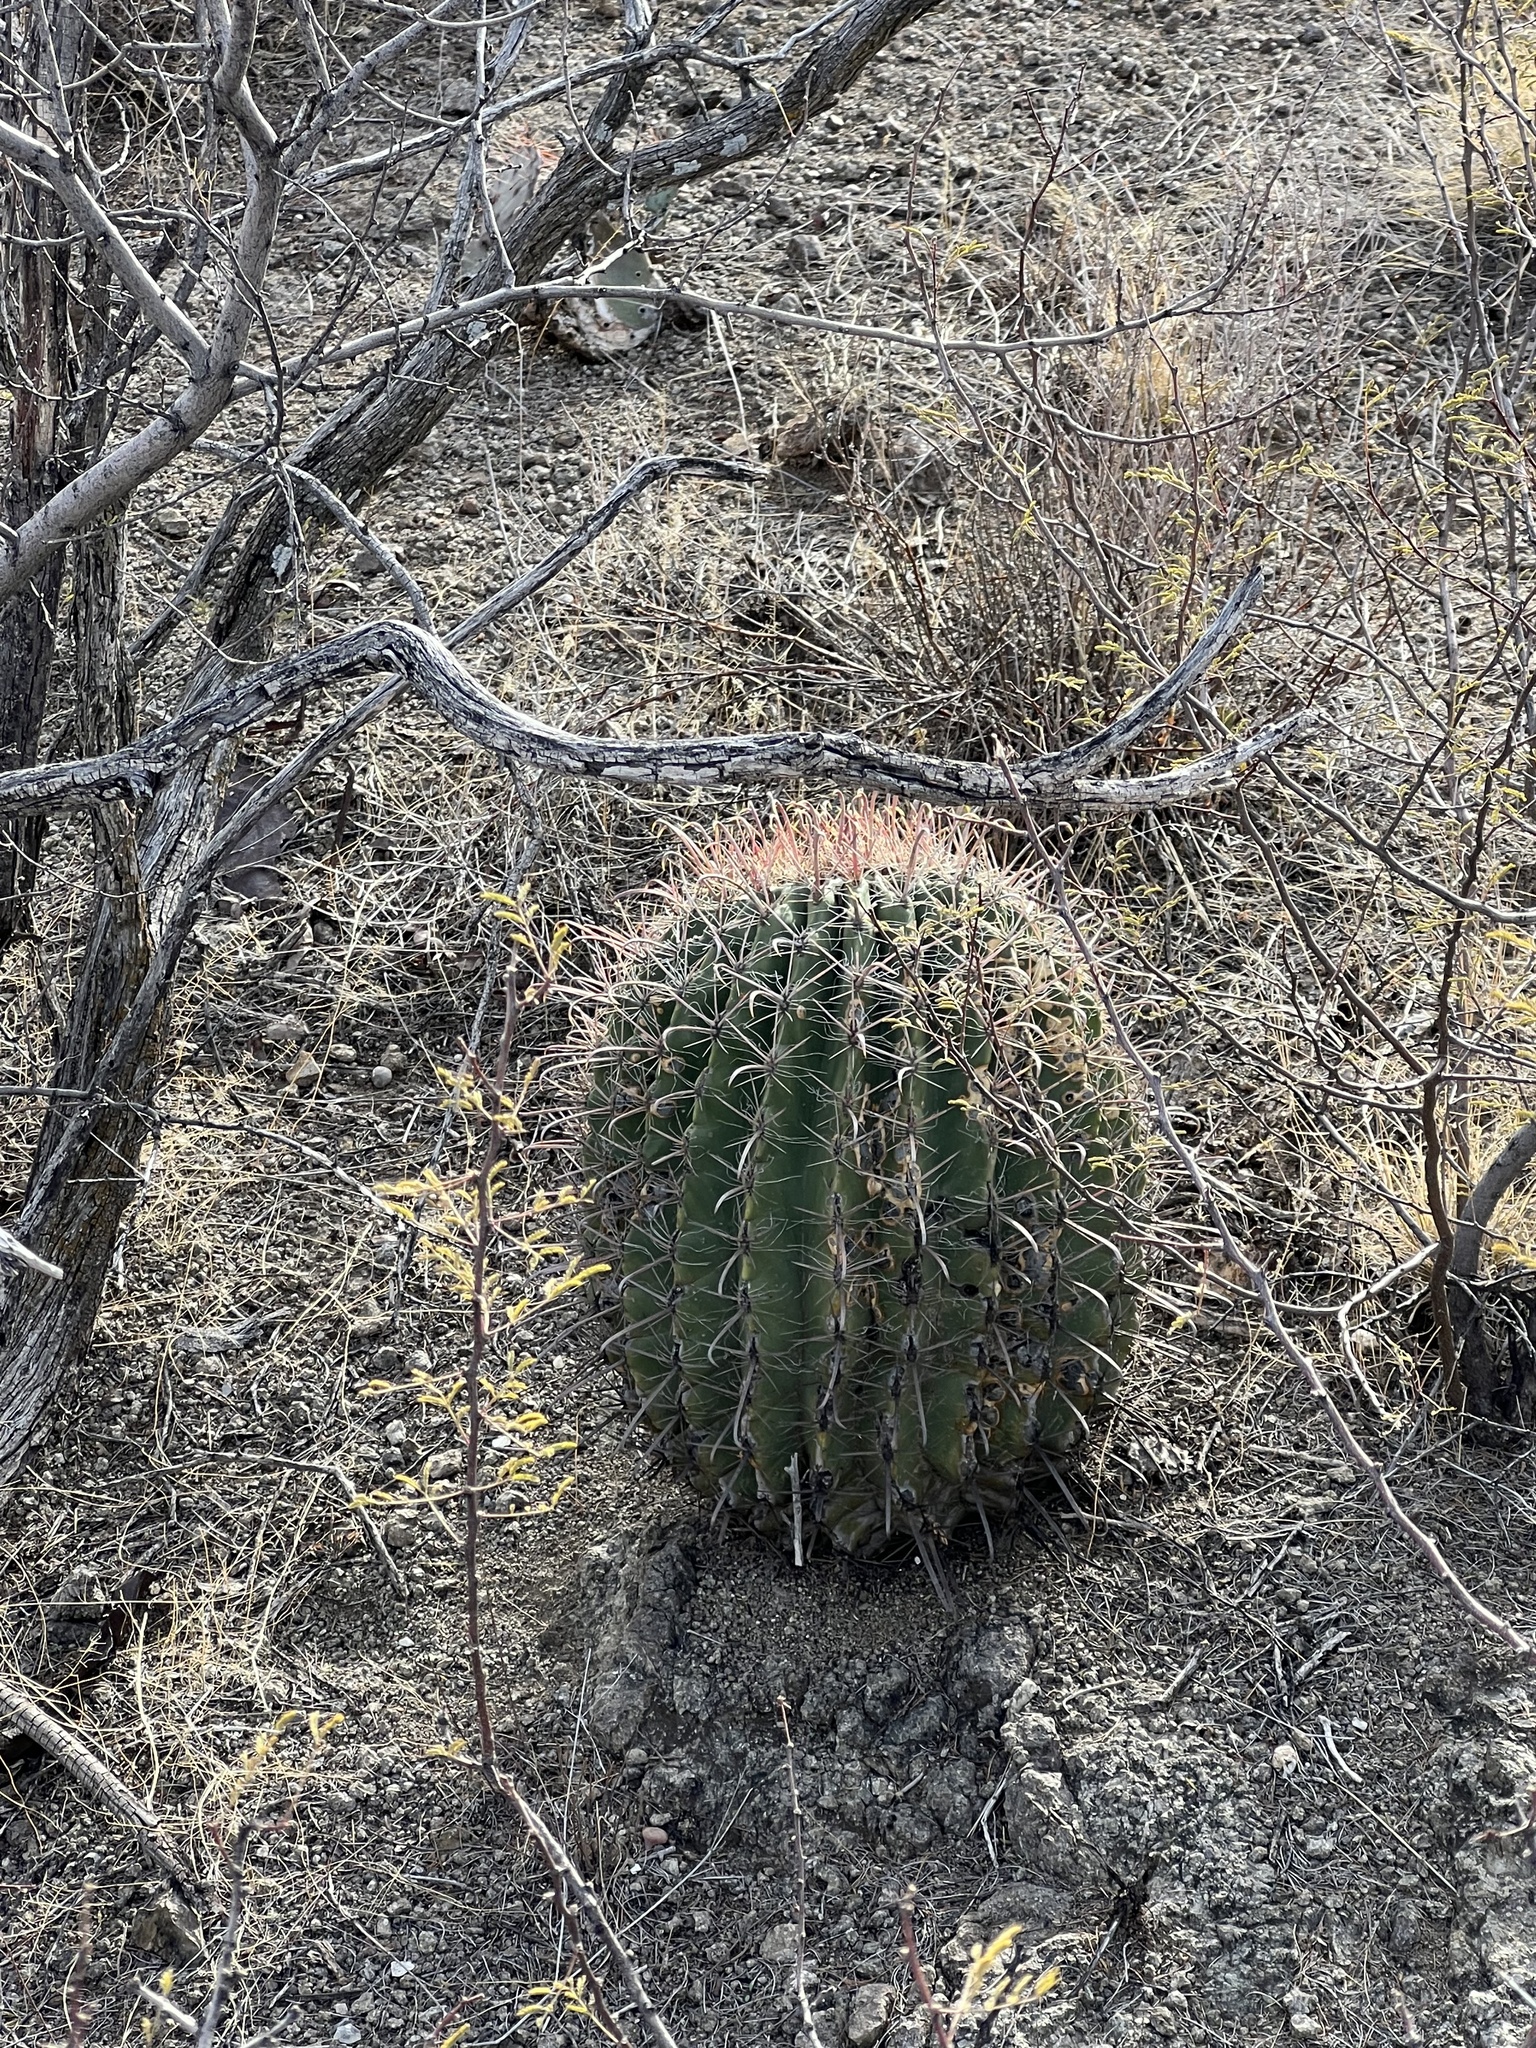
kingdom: Plantae
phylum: Tracheophyta
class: Magnoliopsida
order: Caryophyllales
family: Cactaceae
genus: Ferocactus
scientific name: Ferocactus wislizeni
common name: Candy barrel cactus
